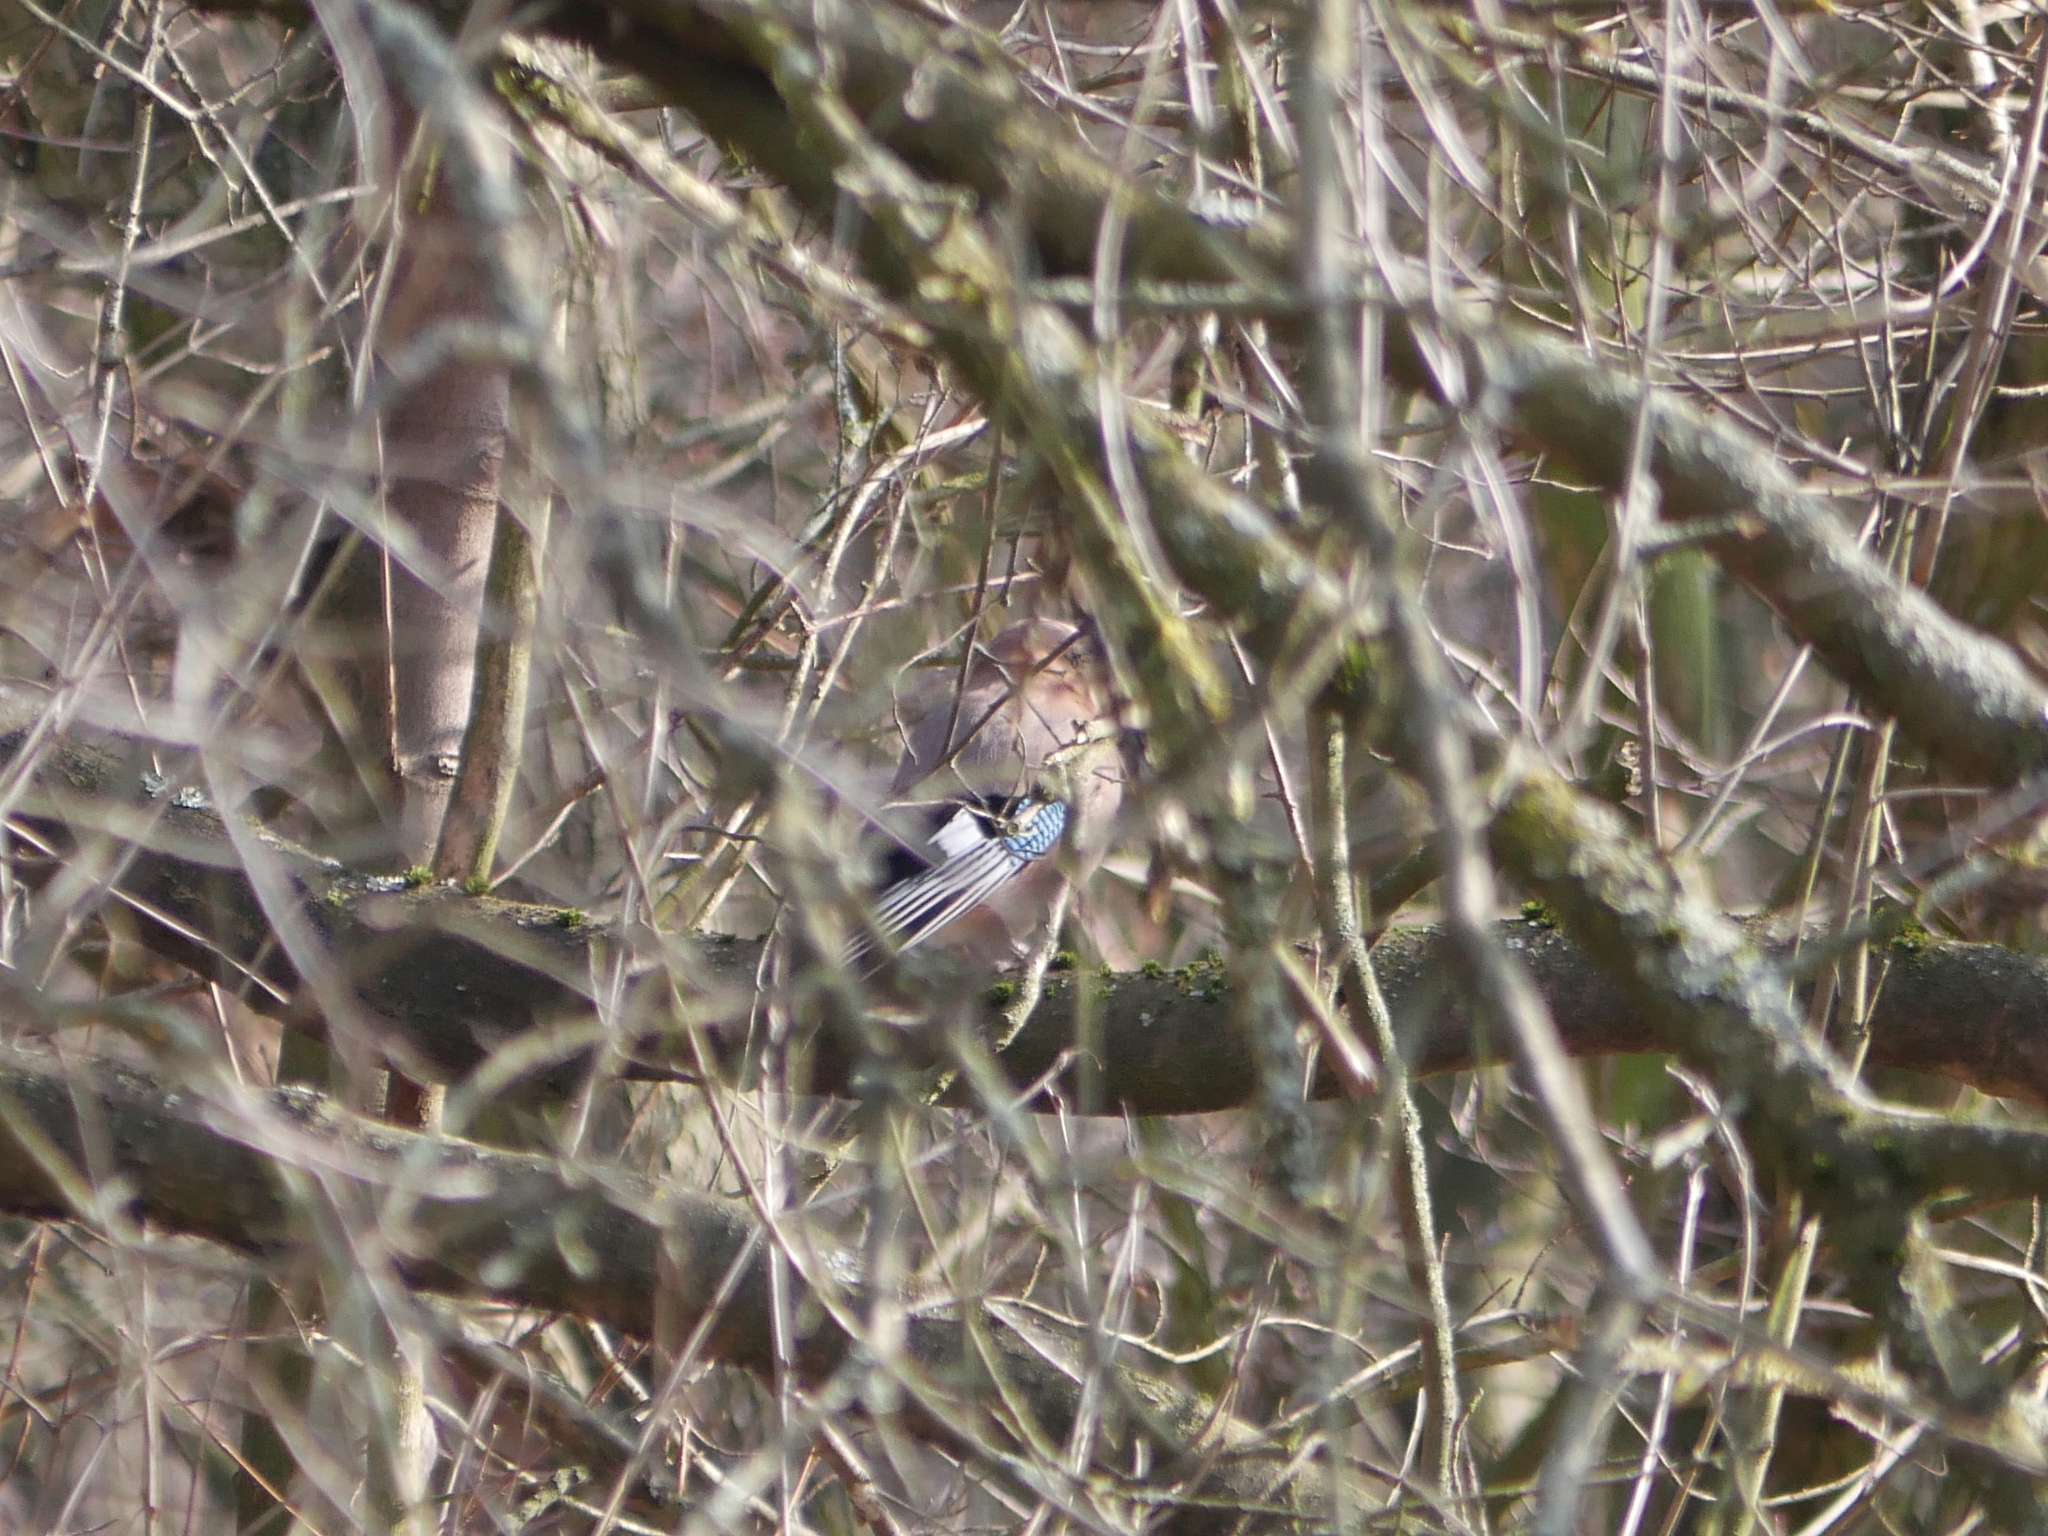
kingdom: Animalia
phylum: Chordata
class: Aves
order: Passeriformes
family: Corvidae
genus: Garrulus
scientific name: Garrulus glandarius
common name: Eurasian jay
